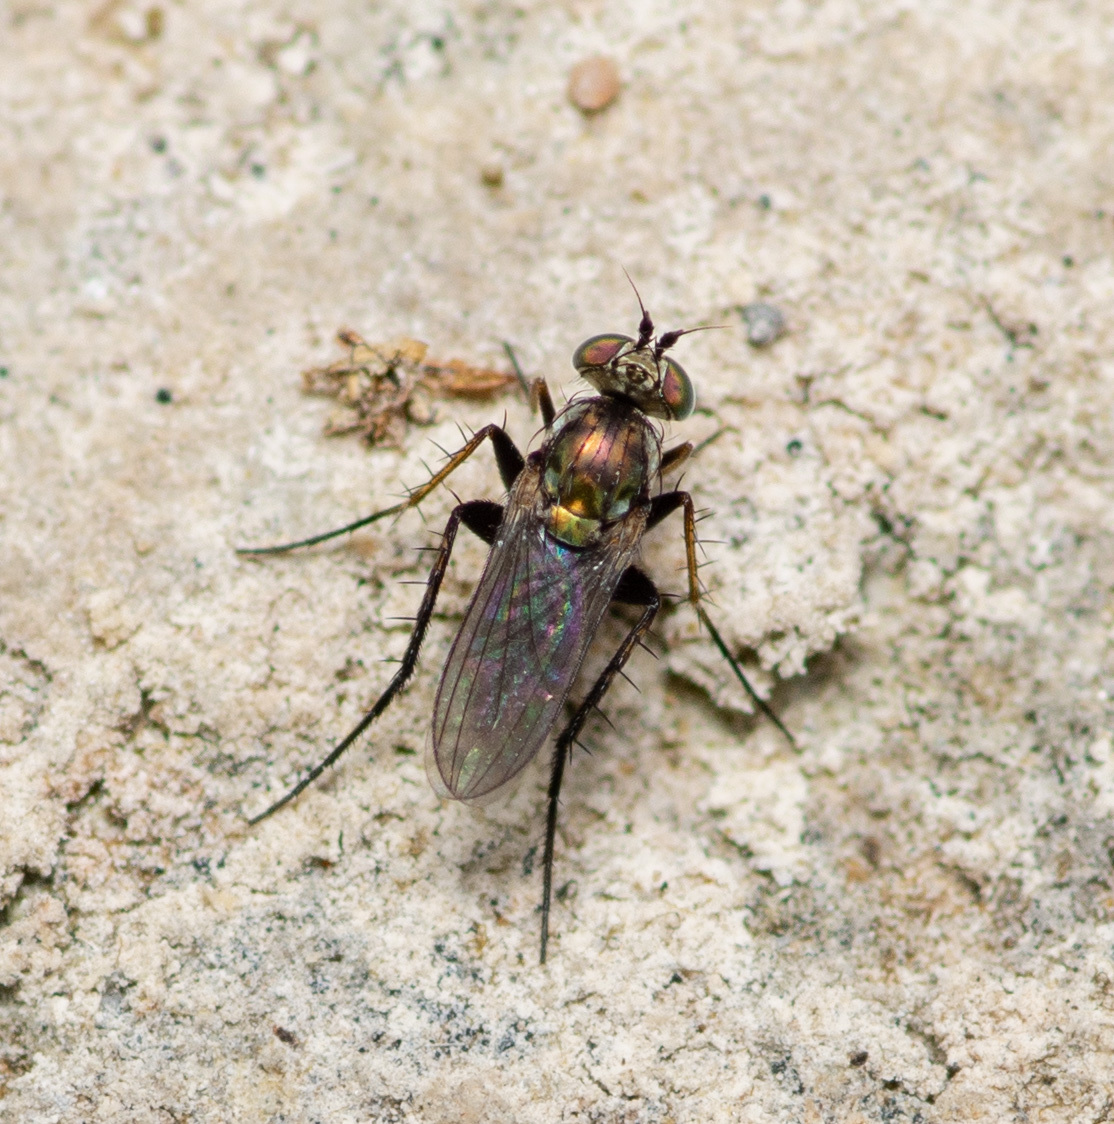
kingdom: Animalia
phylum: Arthropoda
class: Insecta
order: Diptera
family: Dolichopodidae
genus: Paraclius
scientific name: Paraclius pumilio
